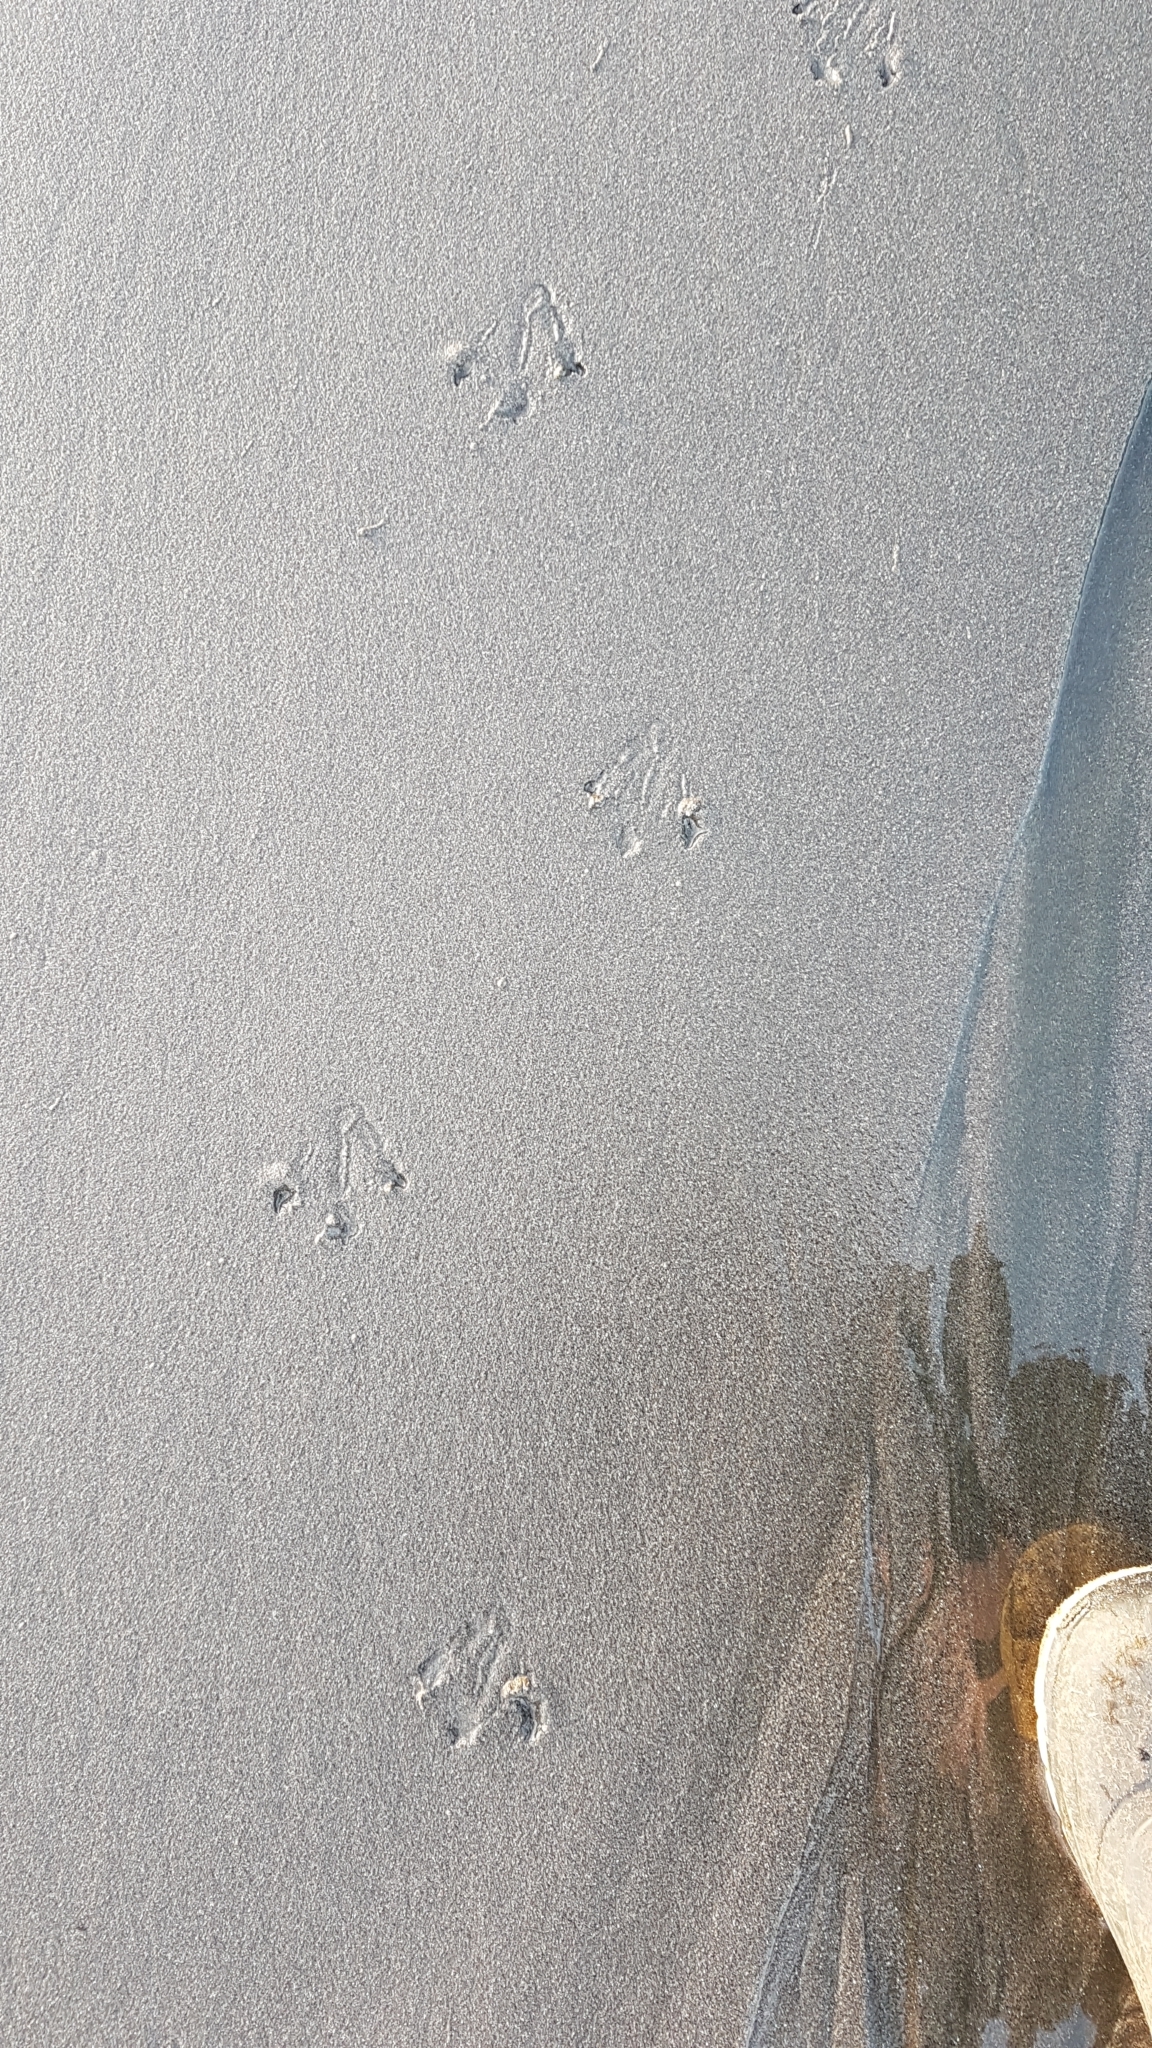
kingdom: Animalia
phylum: Chordata
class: Aves
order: Sphenisciformes
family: Spheniscidae
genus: Eudyptula
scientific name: Eudyptula minor
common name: Little penguin
